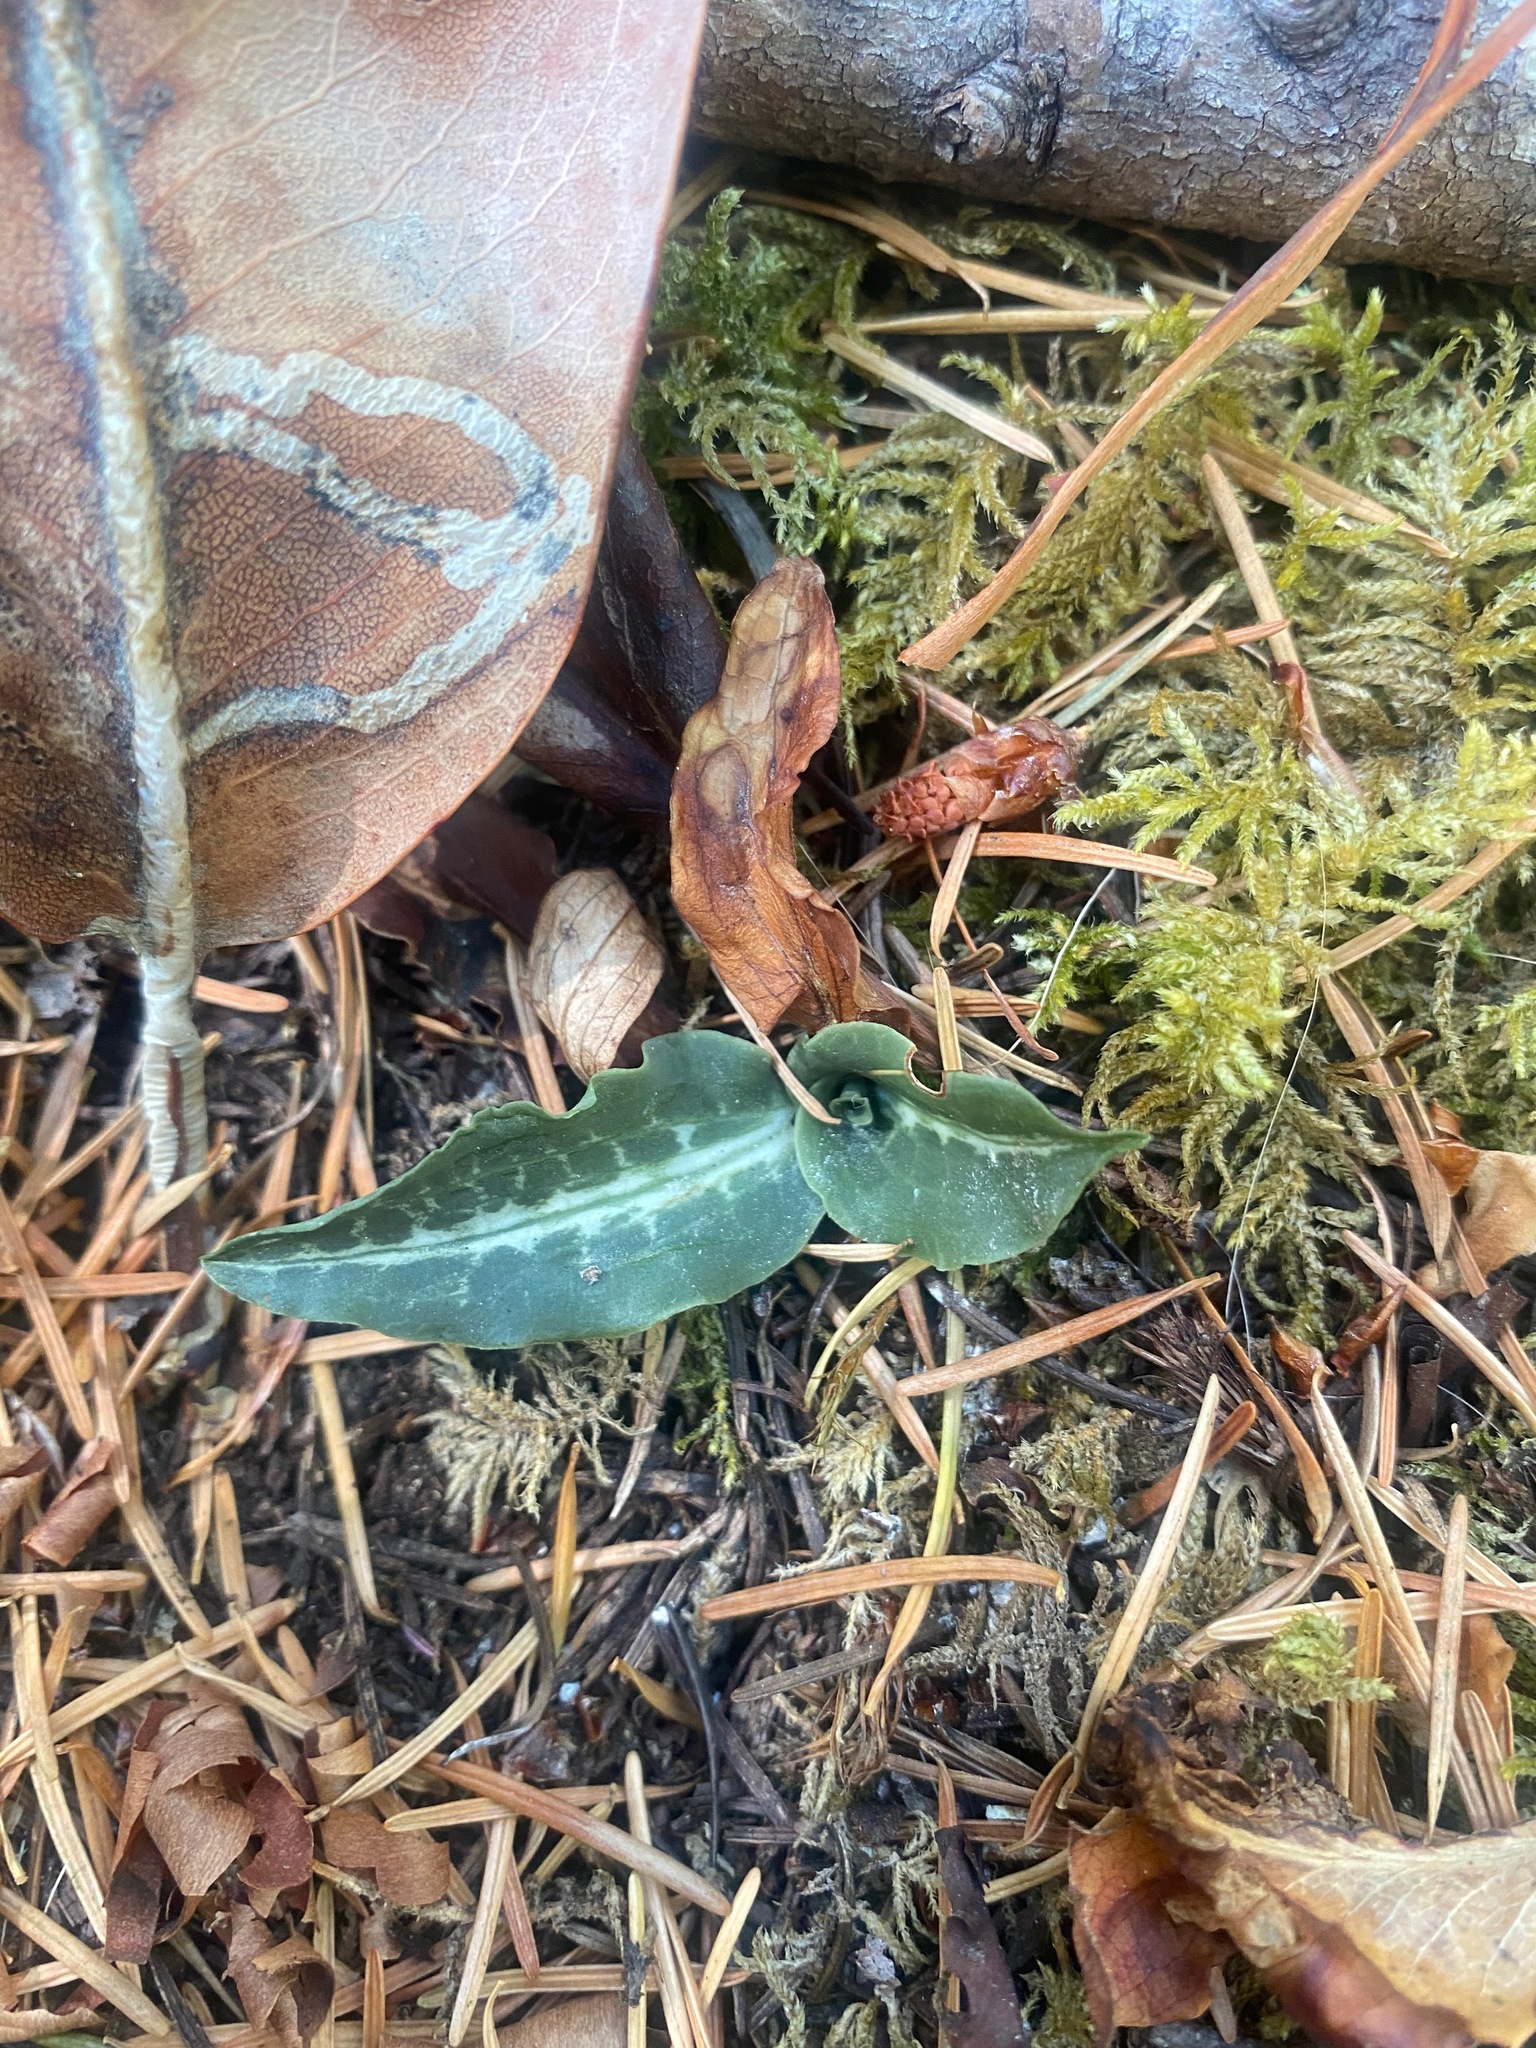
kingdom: Plantae
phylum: Tracheophyta
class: Liliopsida
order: Asparagales
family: Orchidaceae
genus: Goodyera
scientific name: Goodyera oblongifolia
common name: Giant rattlesnake-plantain
